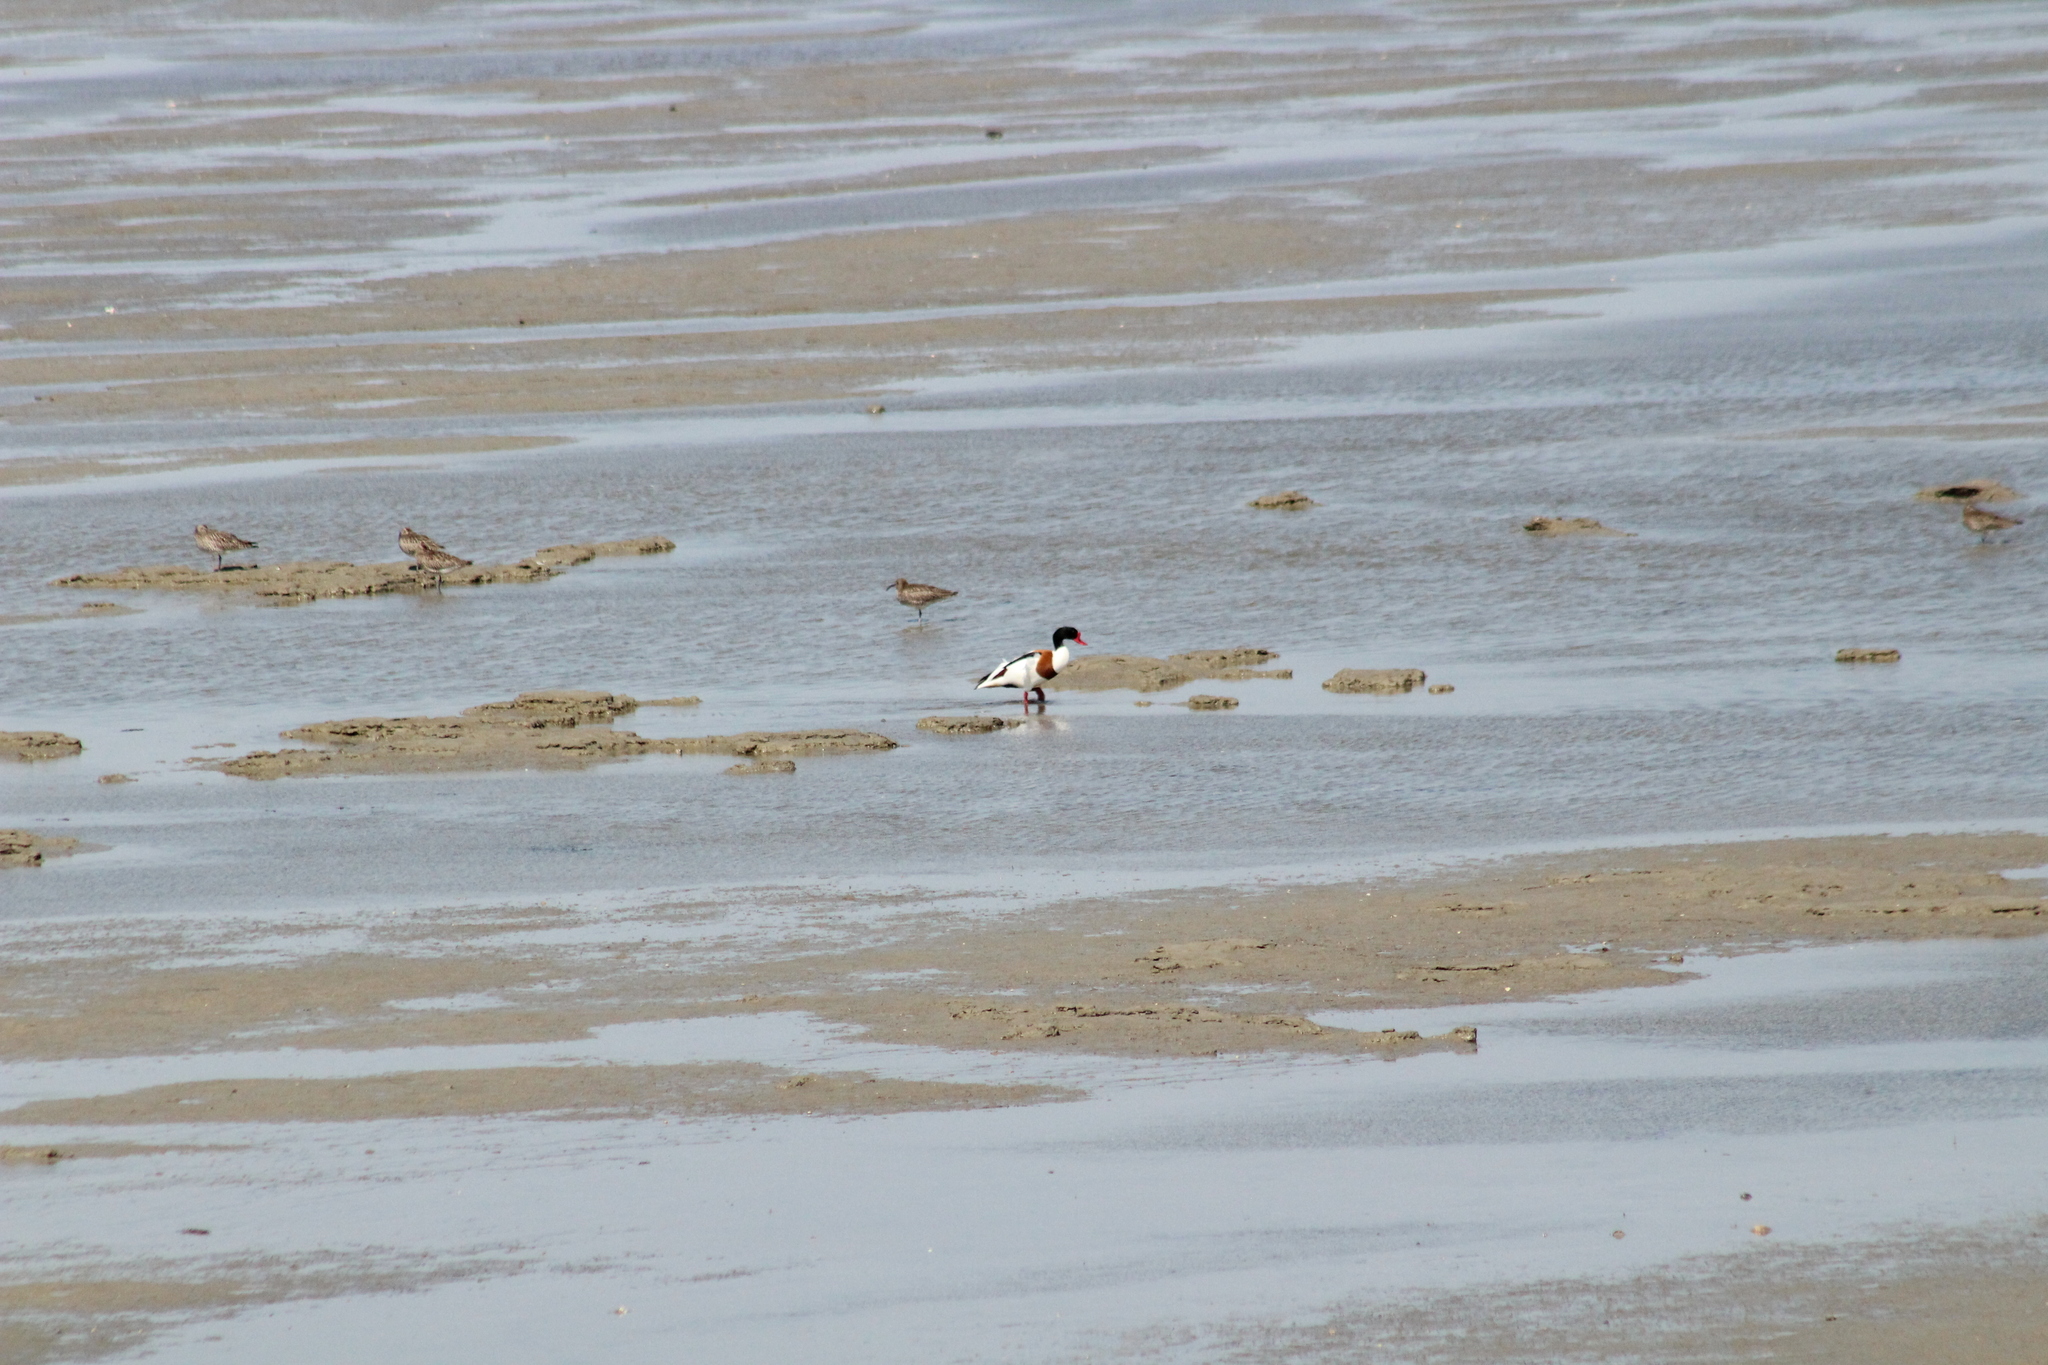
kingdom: Animalia
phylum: Chordata
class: Aves
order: Anseriformes
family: Anatidae
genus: Tadorna
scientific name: Tadorna tadorna
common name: Common shelduck
